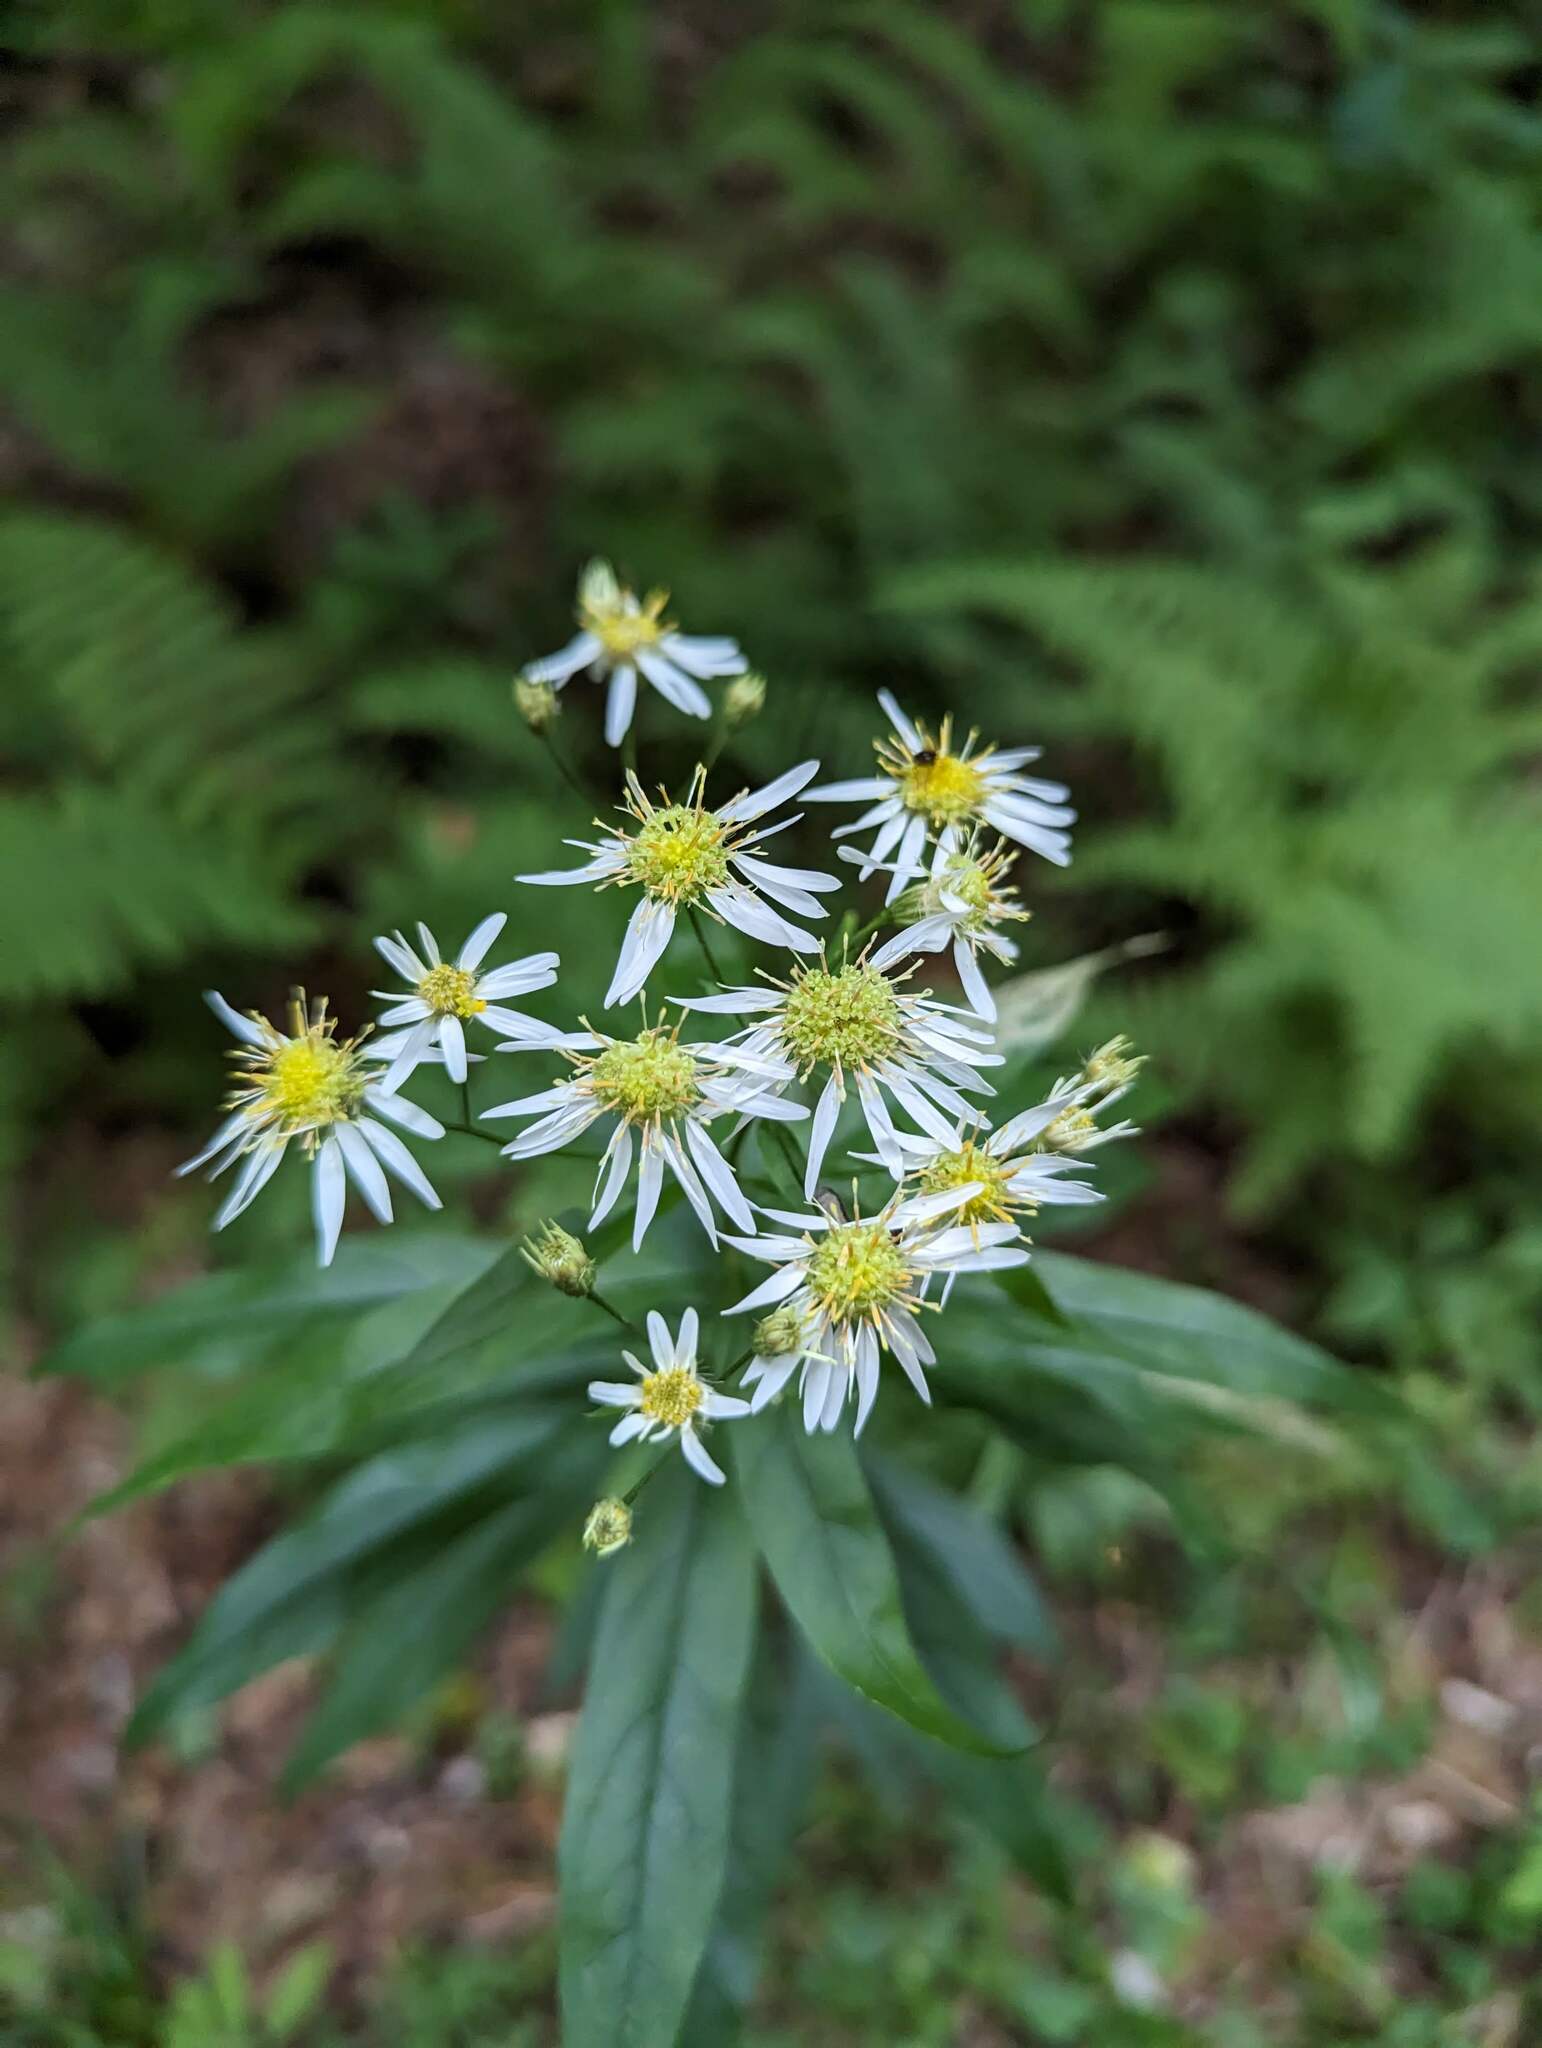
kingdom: Plantae
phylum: Tracheophyta
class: Magnoliopsida
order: Asterales
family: Asteraceae
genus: Doellingeria
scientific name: Doellingeria umbellata
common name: Flat-top white aster
